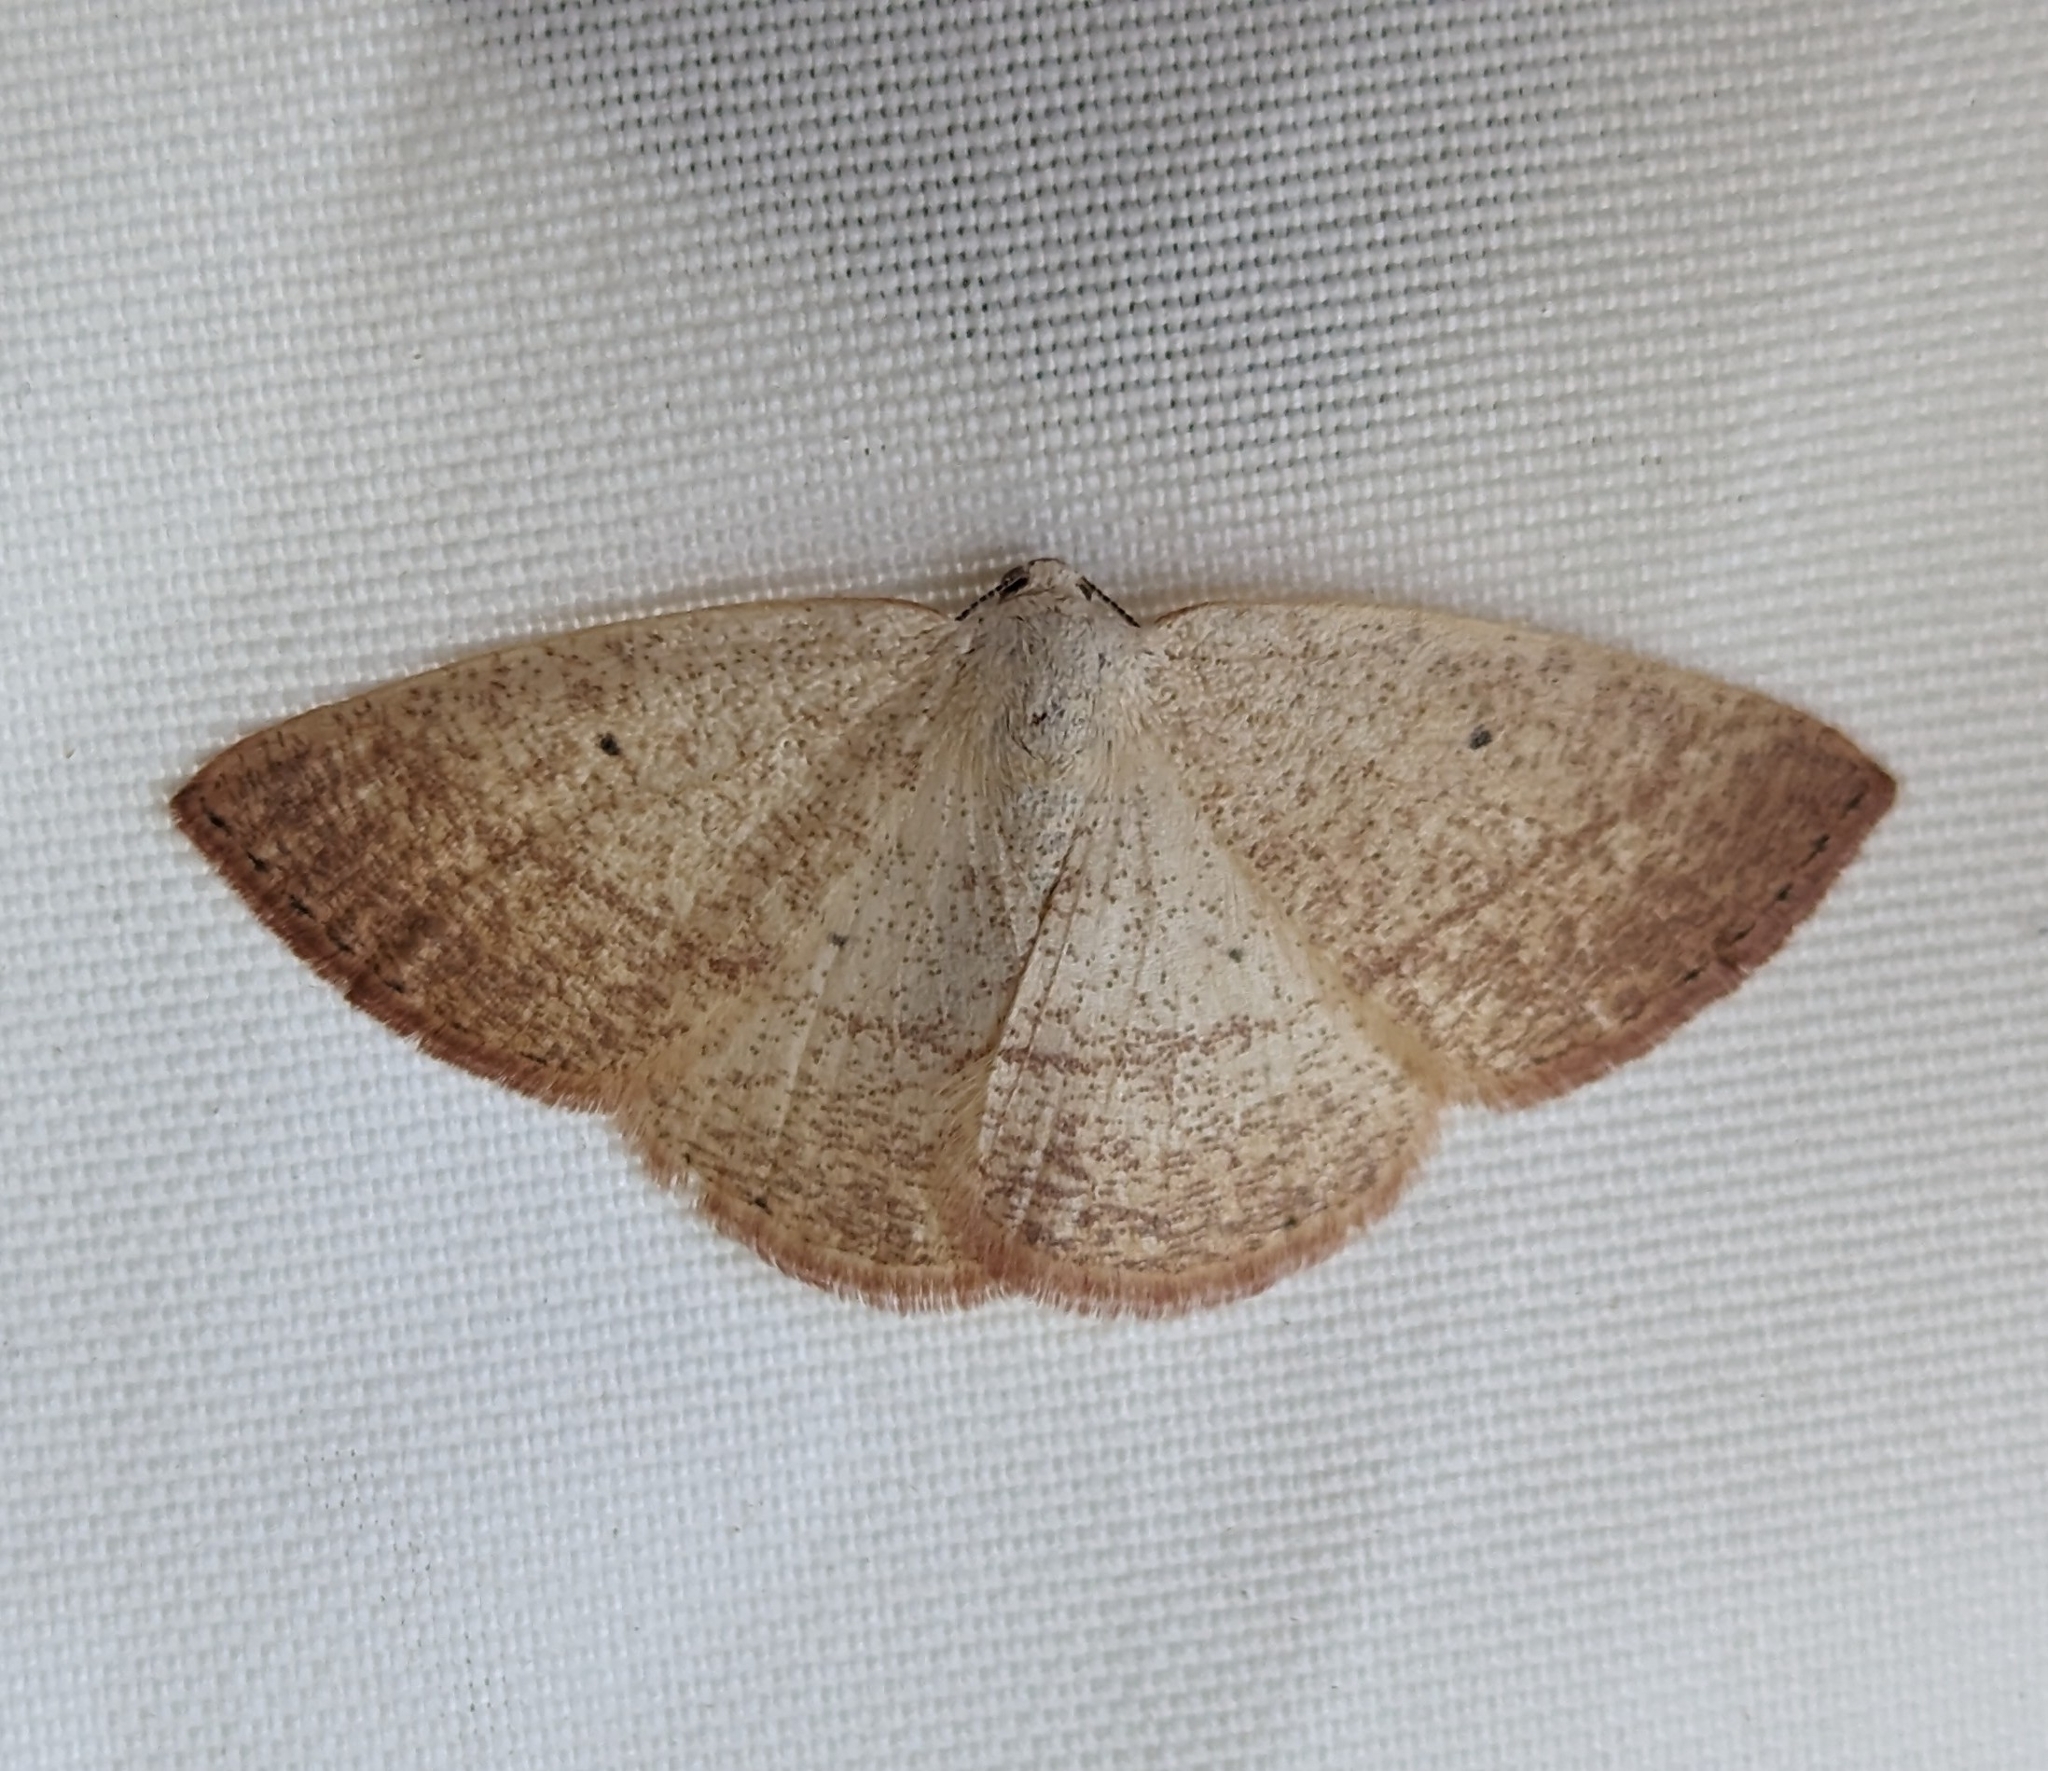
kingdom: Animalia
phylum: Arthropoda
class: Insecta
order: Lepidoptera
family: Geometridae
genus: Eudrepanulatrix
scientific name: Eudrepanulatrix rectifascia
